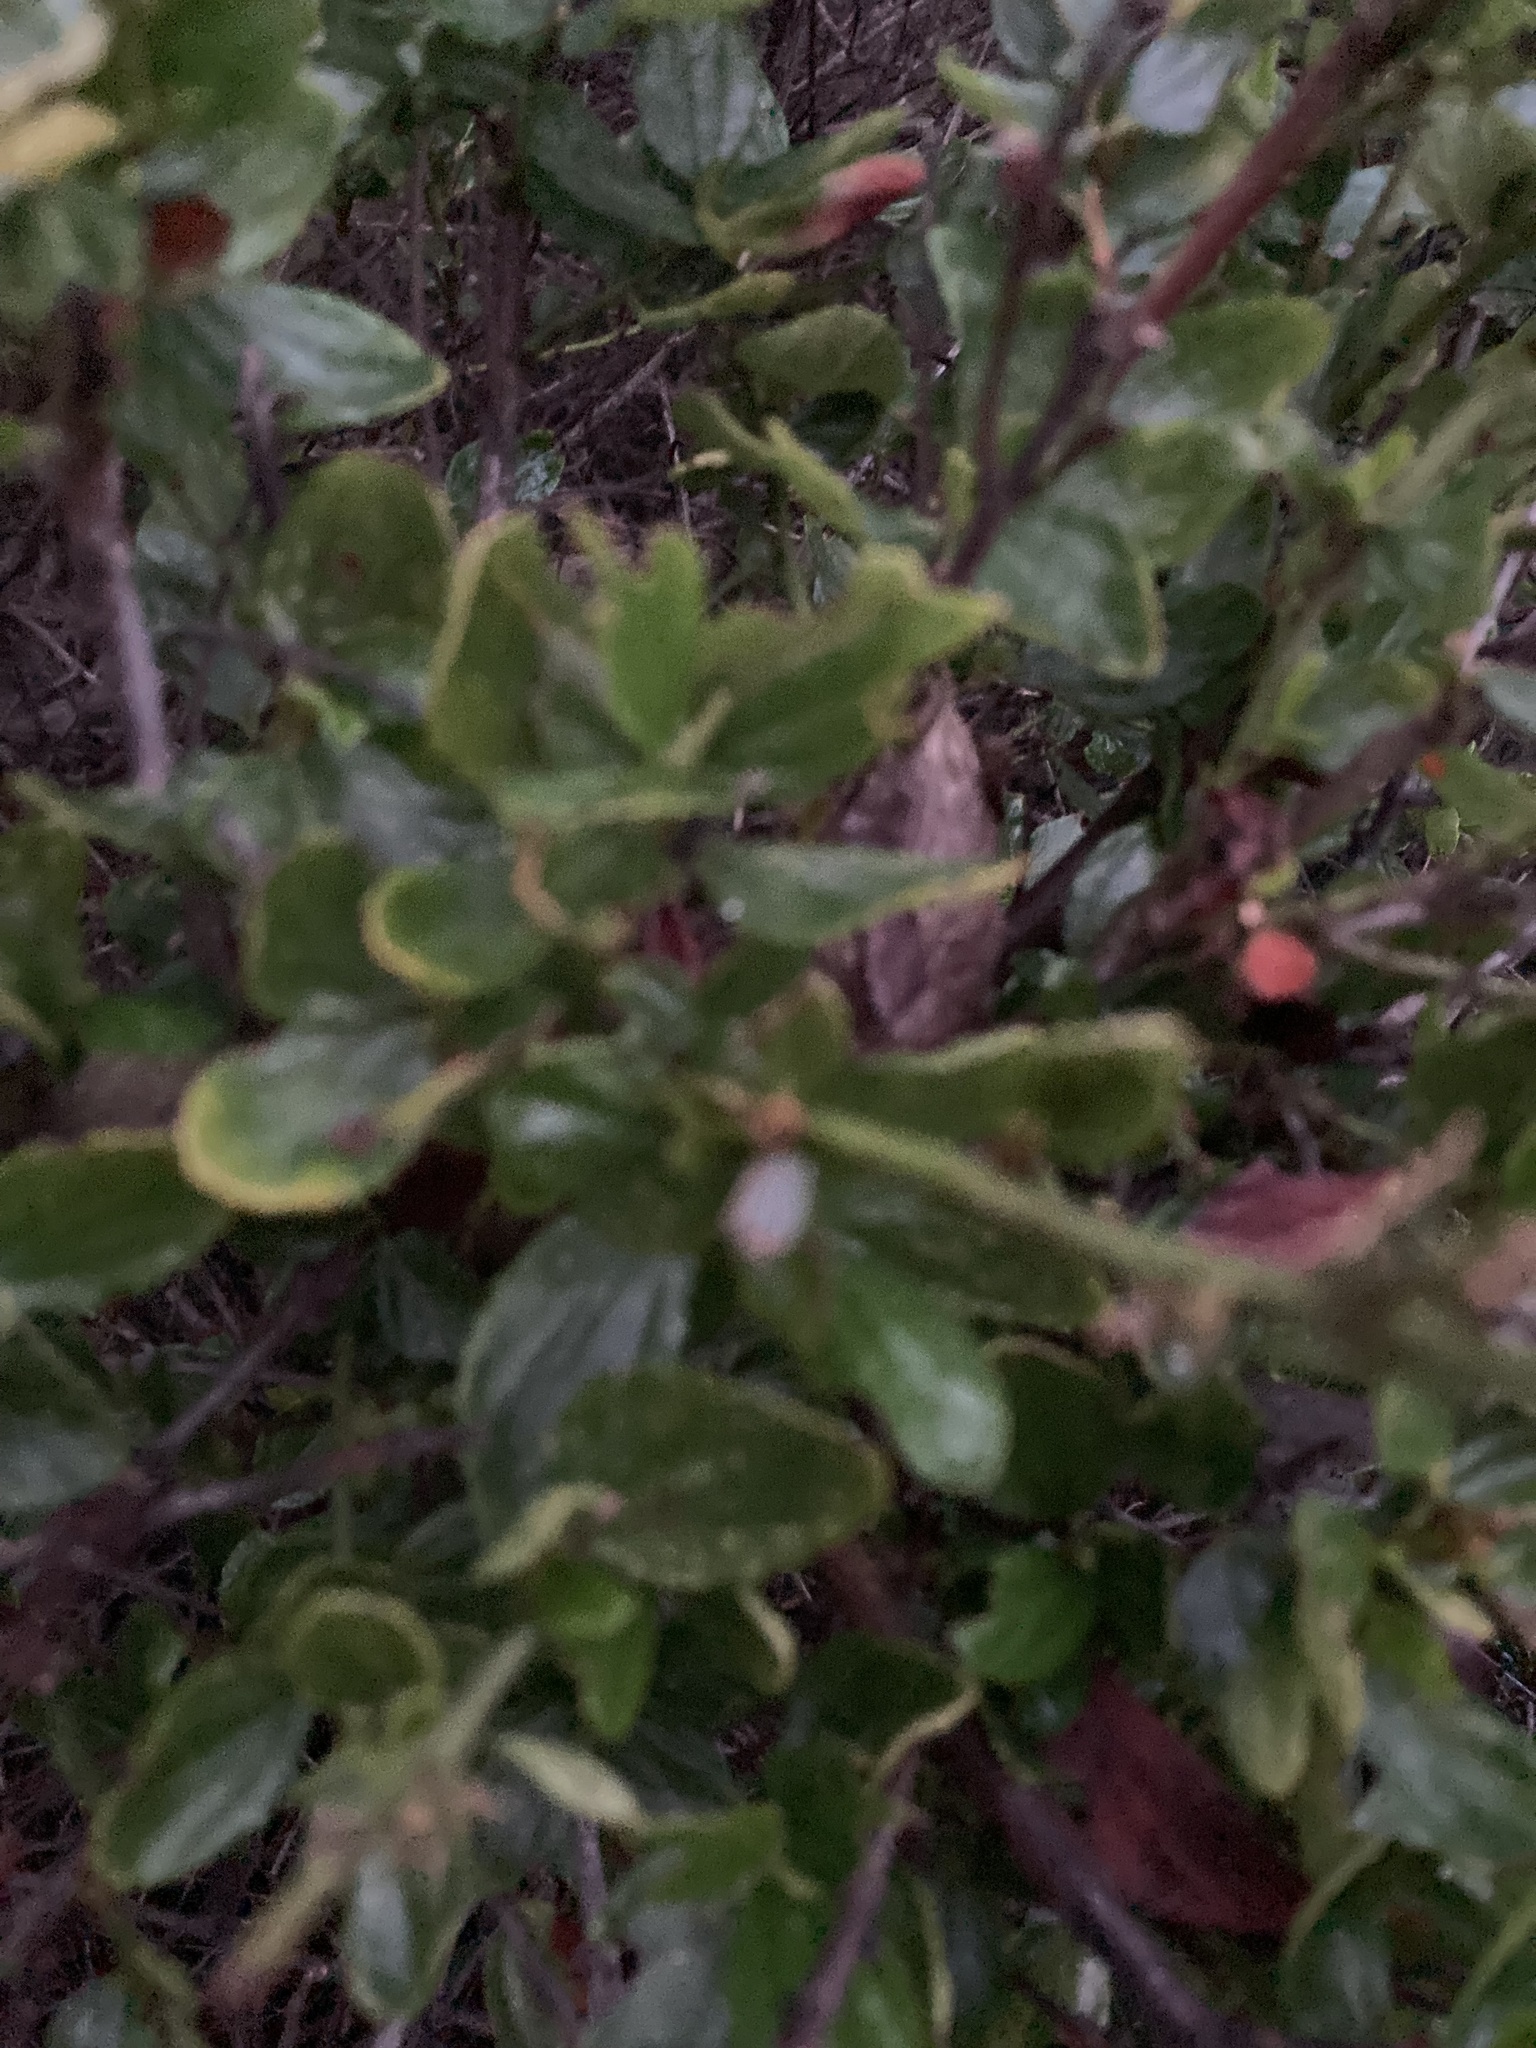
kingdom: Plantae
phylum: Tracheophyta
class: Magnoliopsida
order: Rosales
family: Rhamnaceae
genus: Ceanothus
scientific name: Ceanothus thyrsiflorus
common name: California-lilac
